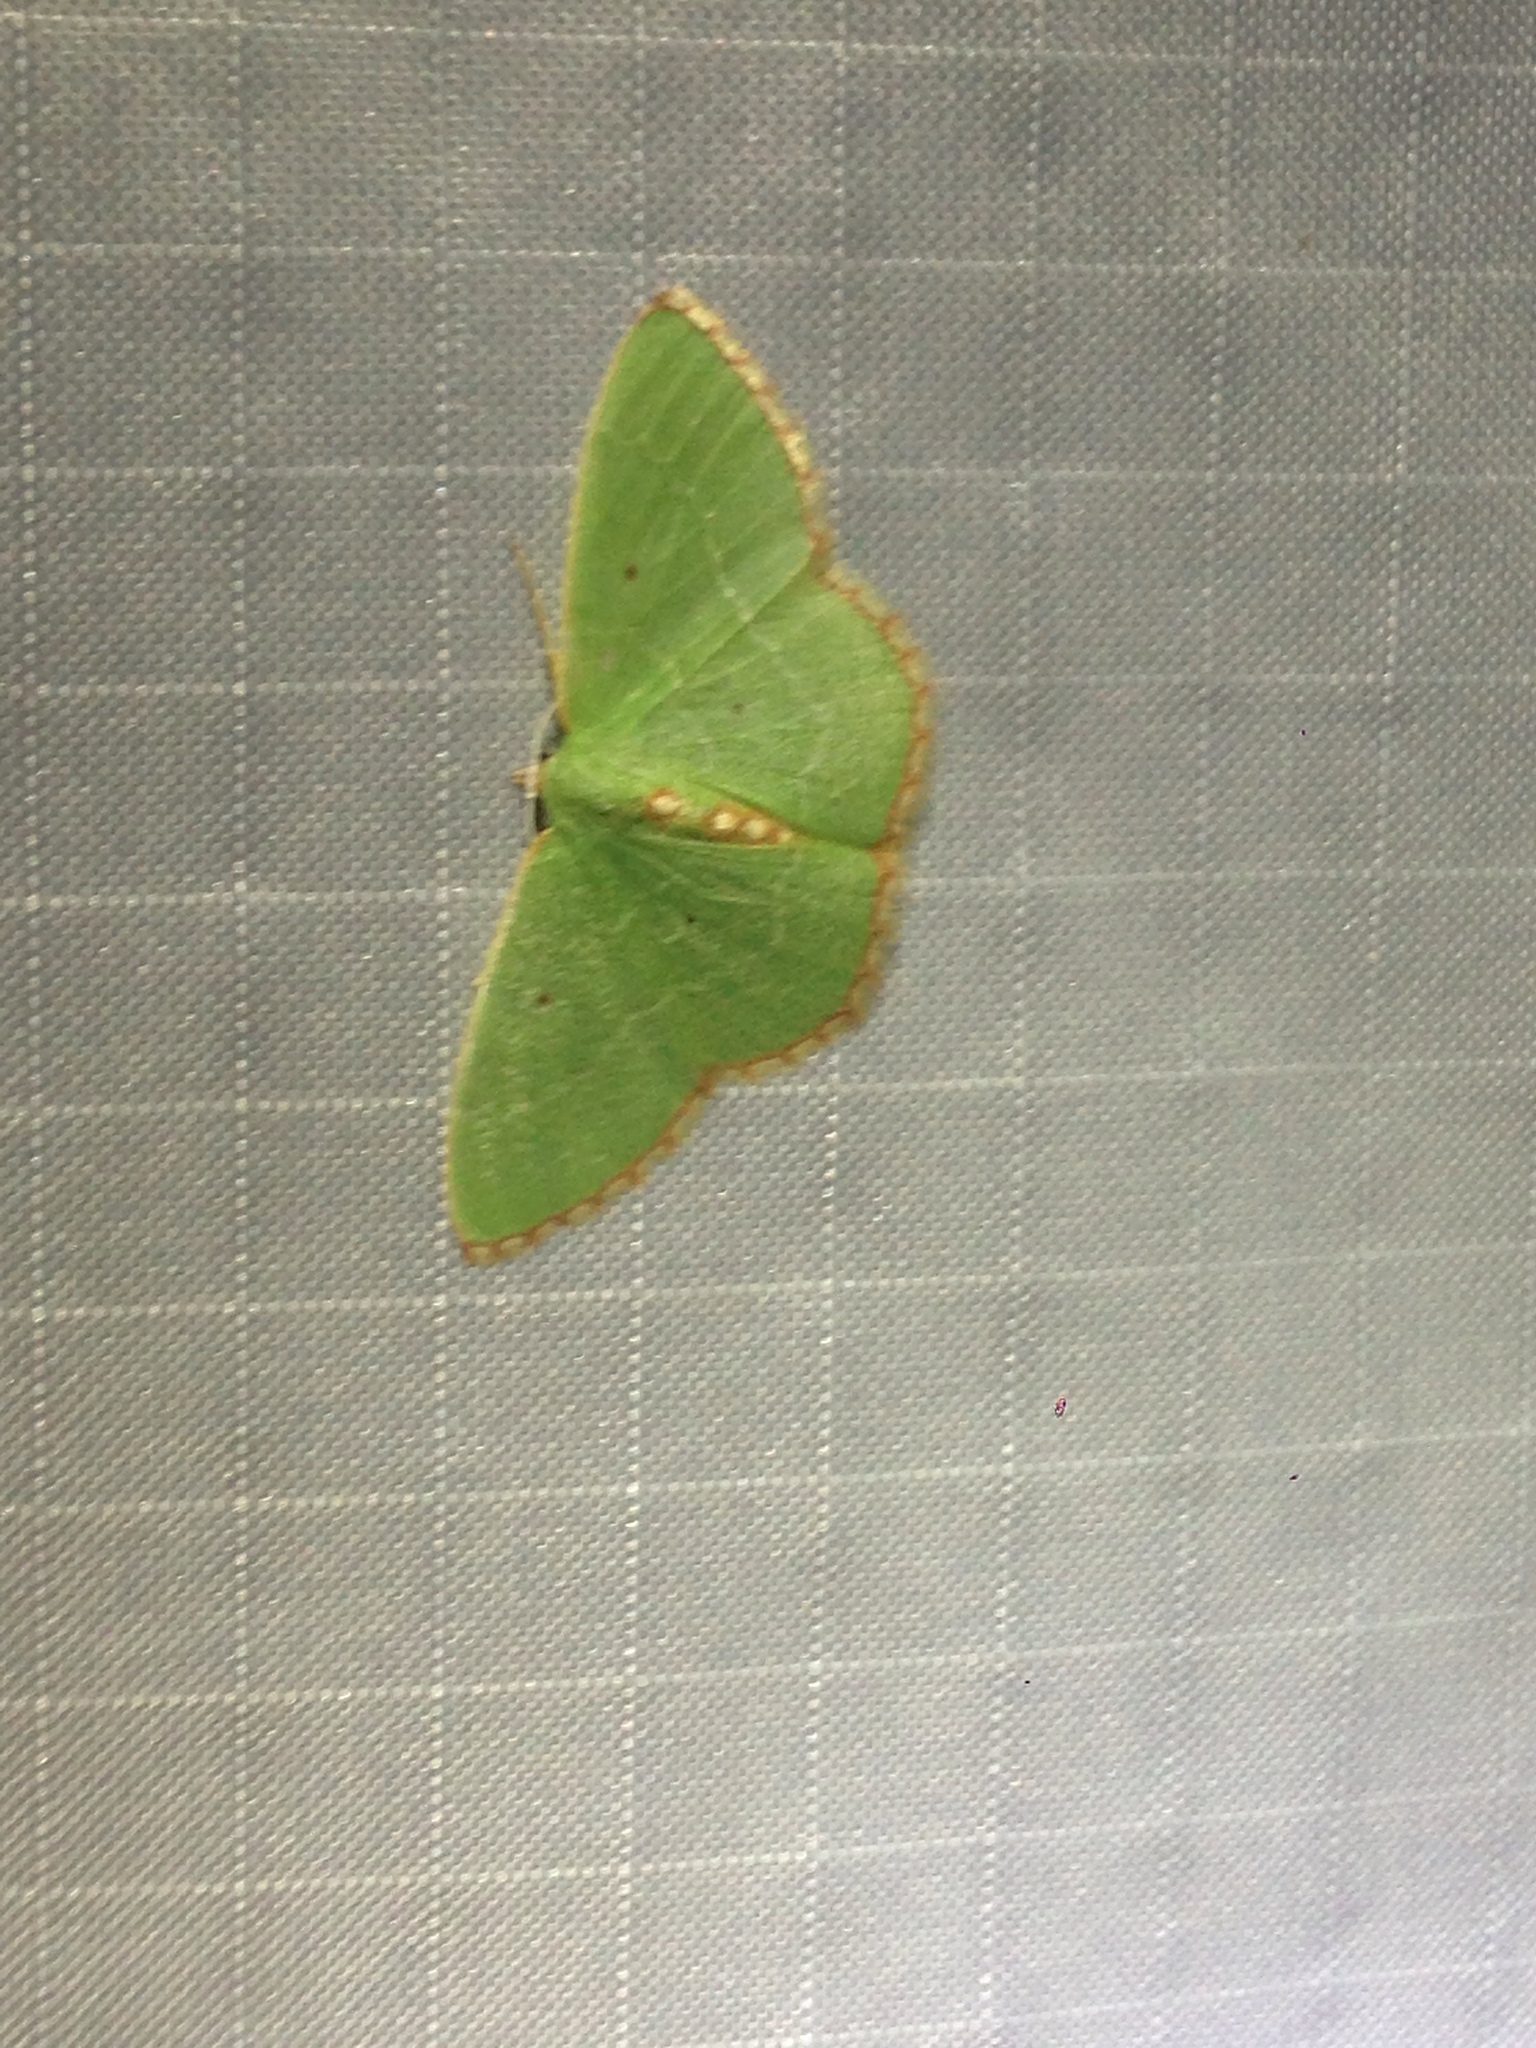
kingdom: Animalia
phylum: Arthropoda
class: Insecta
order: Lepidoptera
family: Geometridae
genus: Nemoria
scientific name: Nemoria lixaria
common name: Red-bordered emerald
